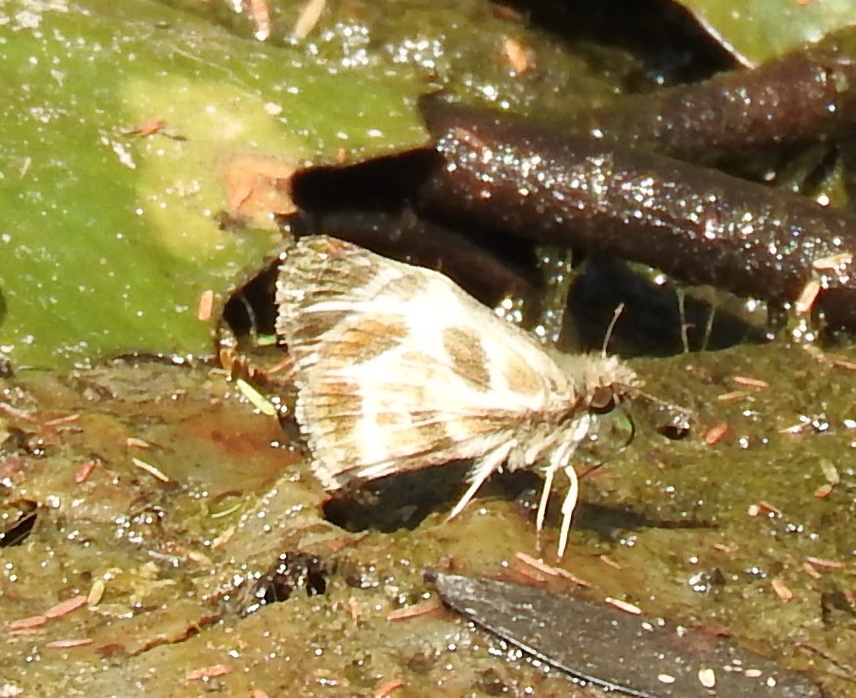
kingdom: Animalia
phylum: Arthropoda
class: Insecta
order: Lepidoptera
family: Hesperiidae
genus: Heliopetes
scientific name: Heliopetes macaira
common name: Turk's-cap white-skipper
